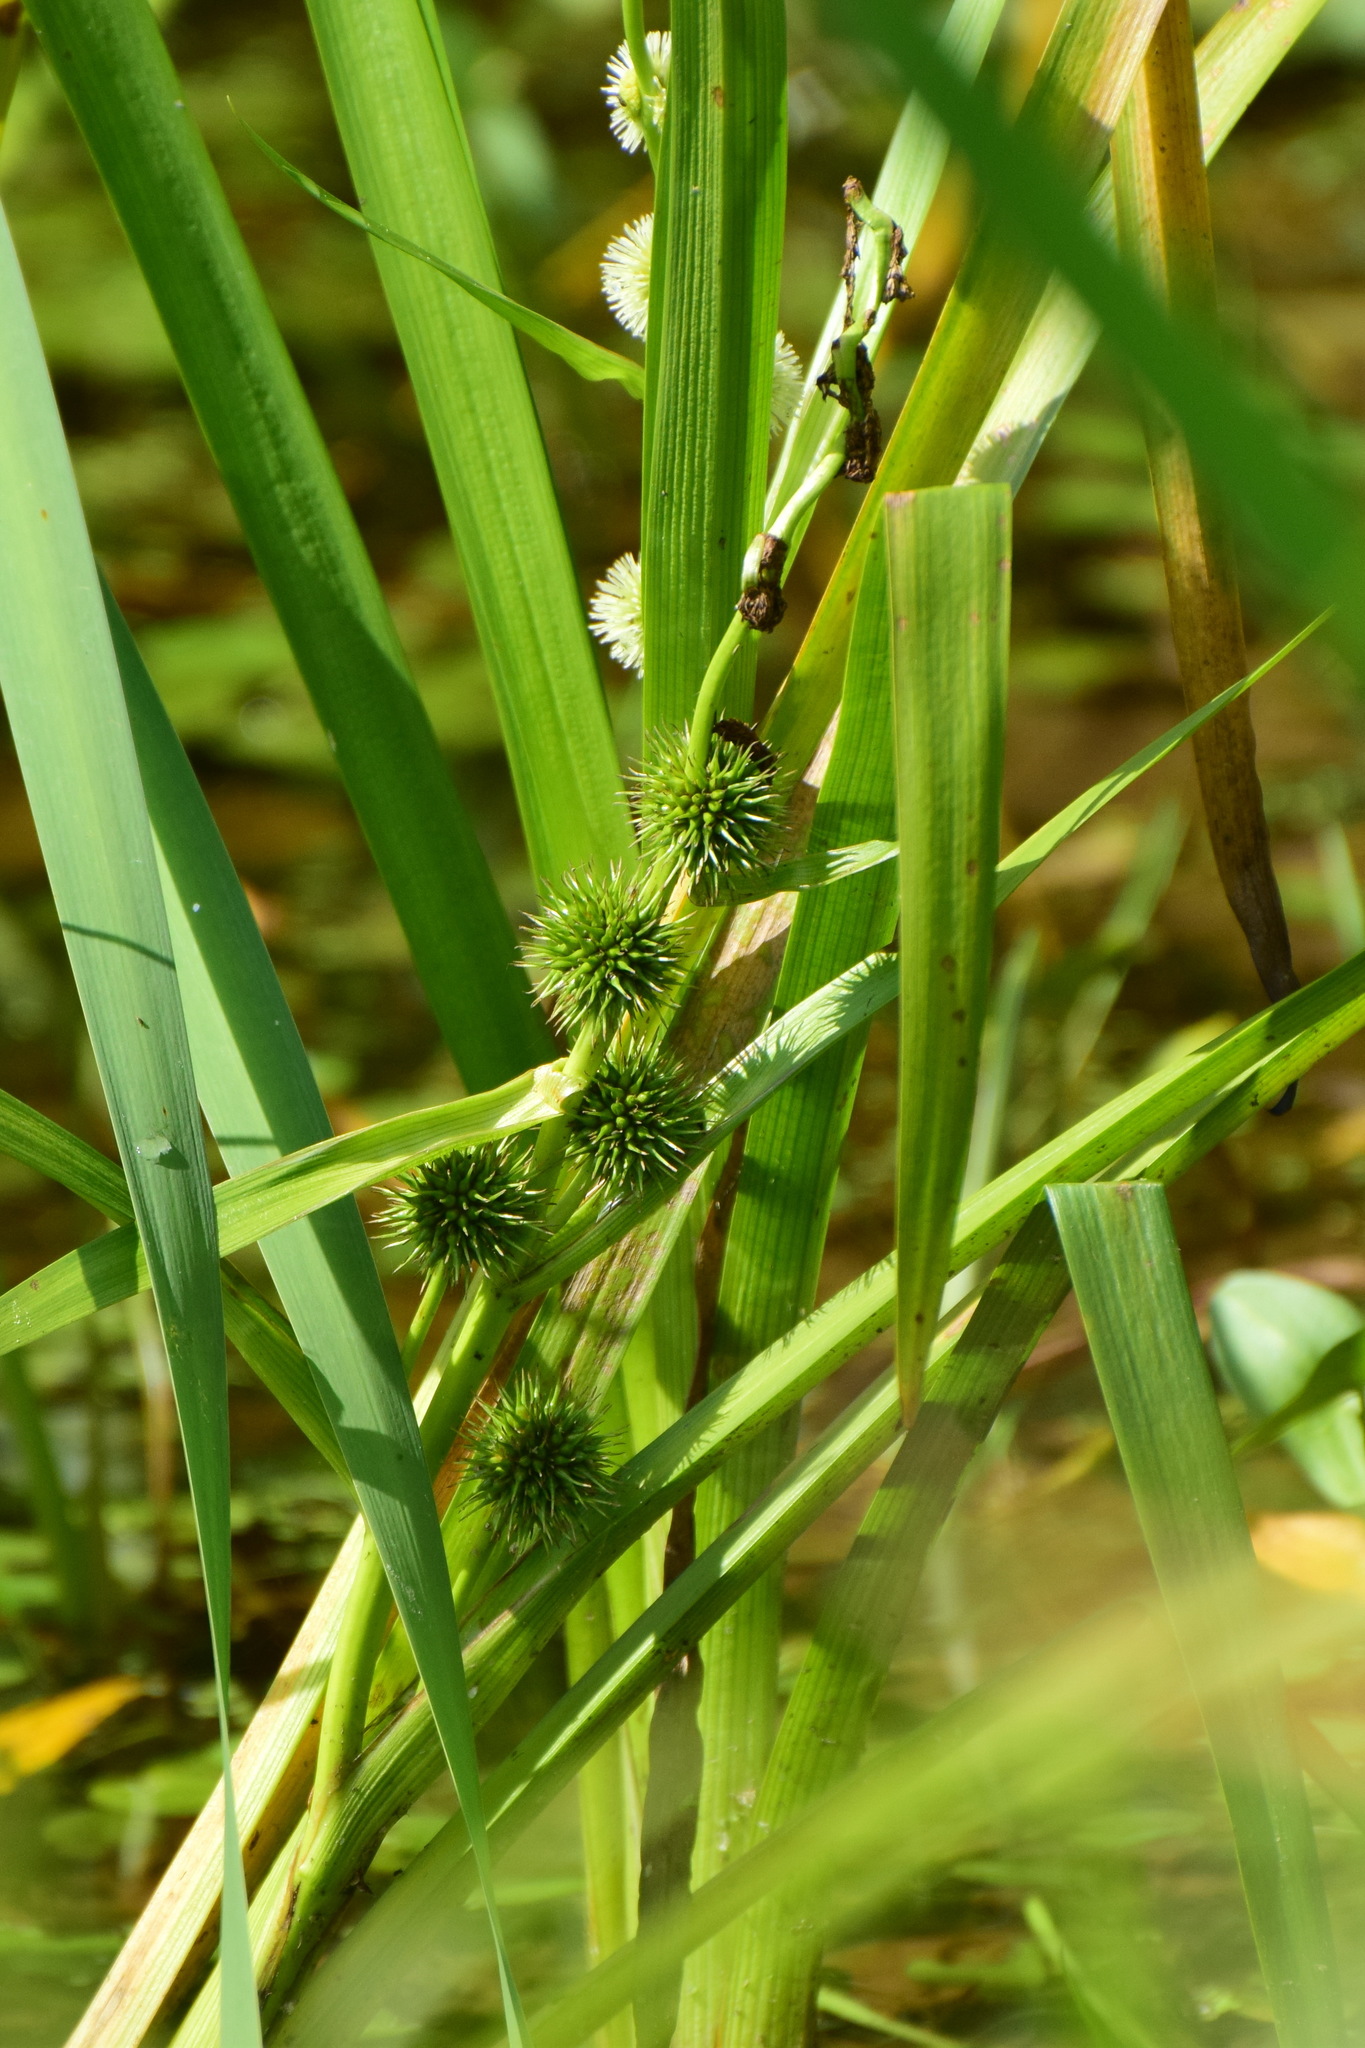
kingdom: Plantae
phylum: Tracheophyta
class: Liliopsida
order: Poales
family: Typhaceae
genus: Sparganium
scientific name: Sparganium emersum
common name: Unbranched bur-reed
